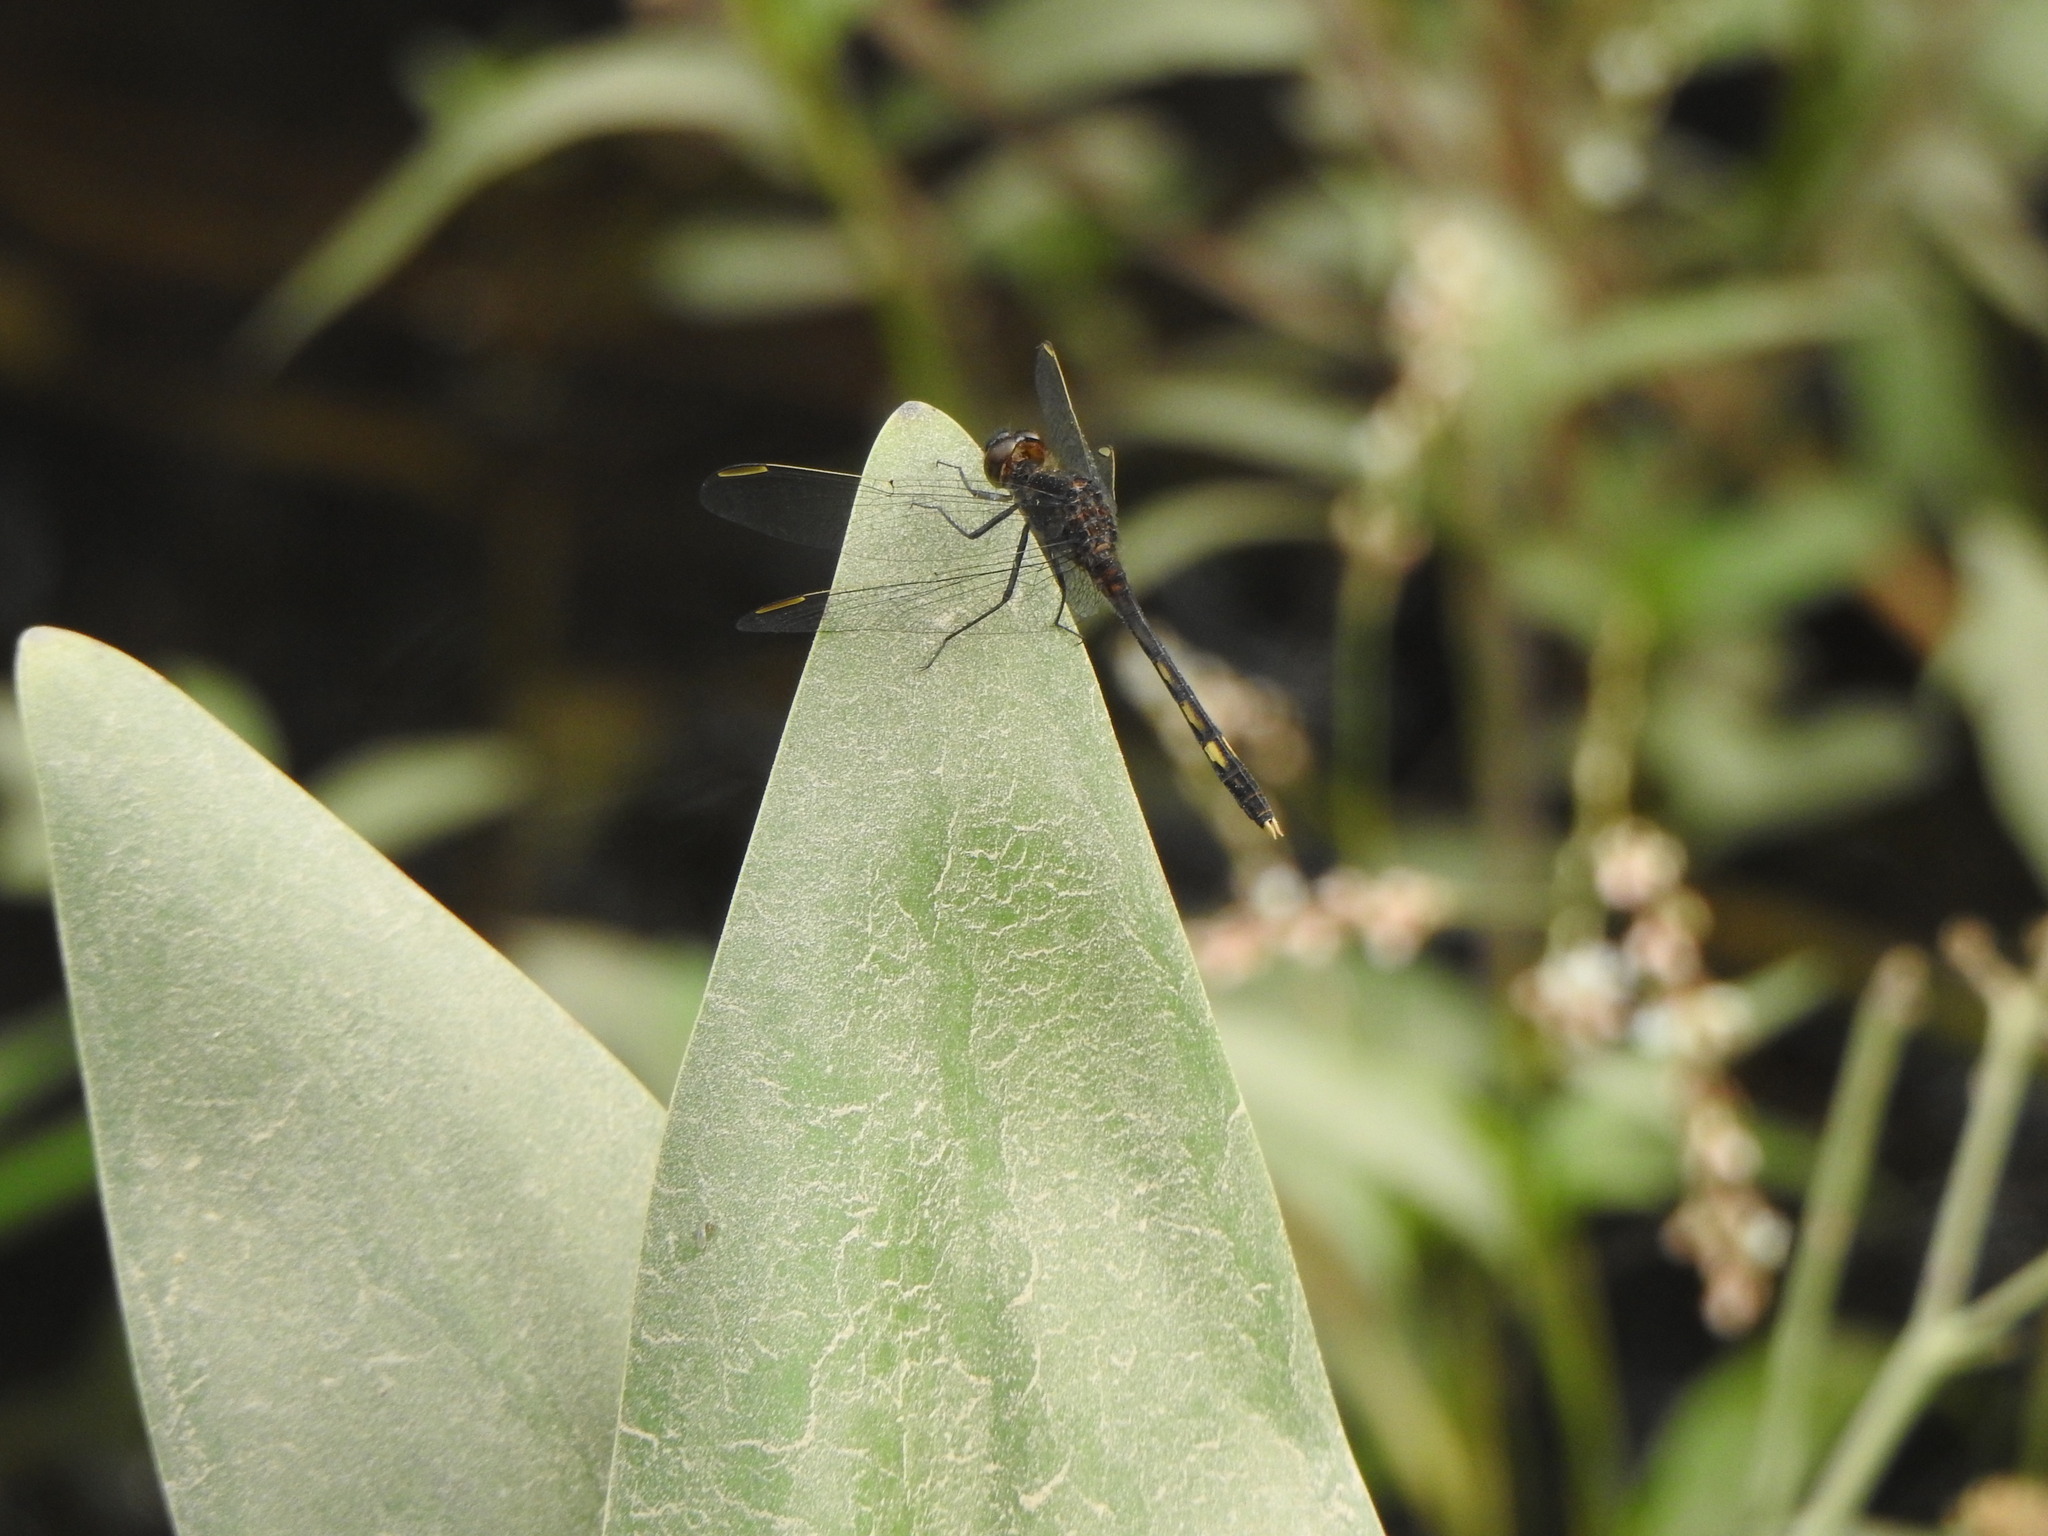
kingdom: Animalia
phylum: Arthropoda
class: Insecta
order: Odonata
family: Libellulidae
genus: Erythrodiplax
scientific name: Erythrodiplax nigricans
